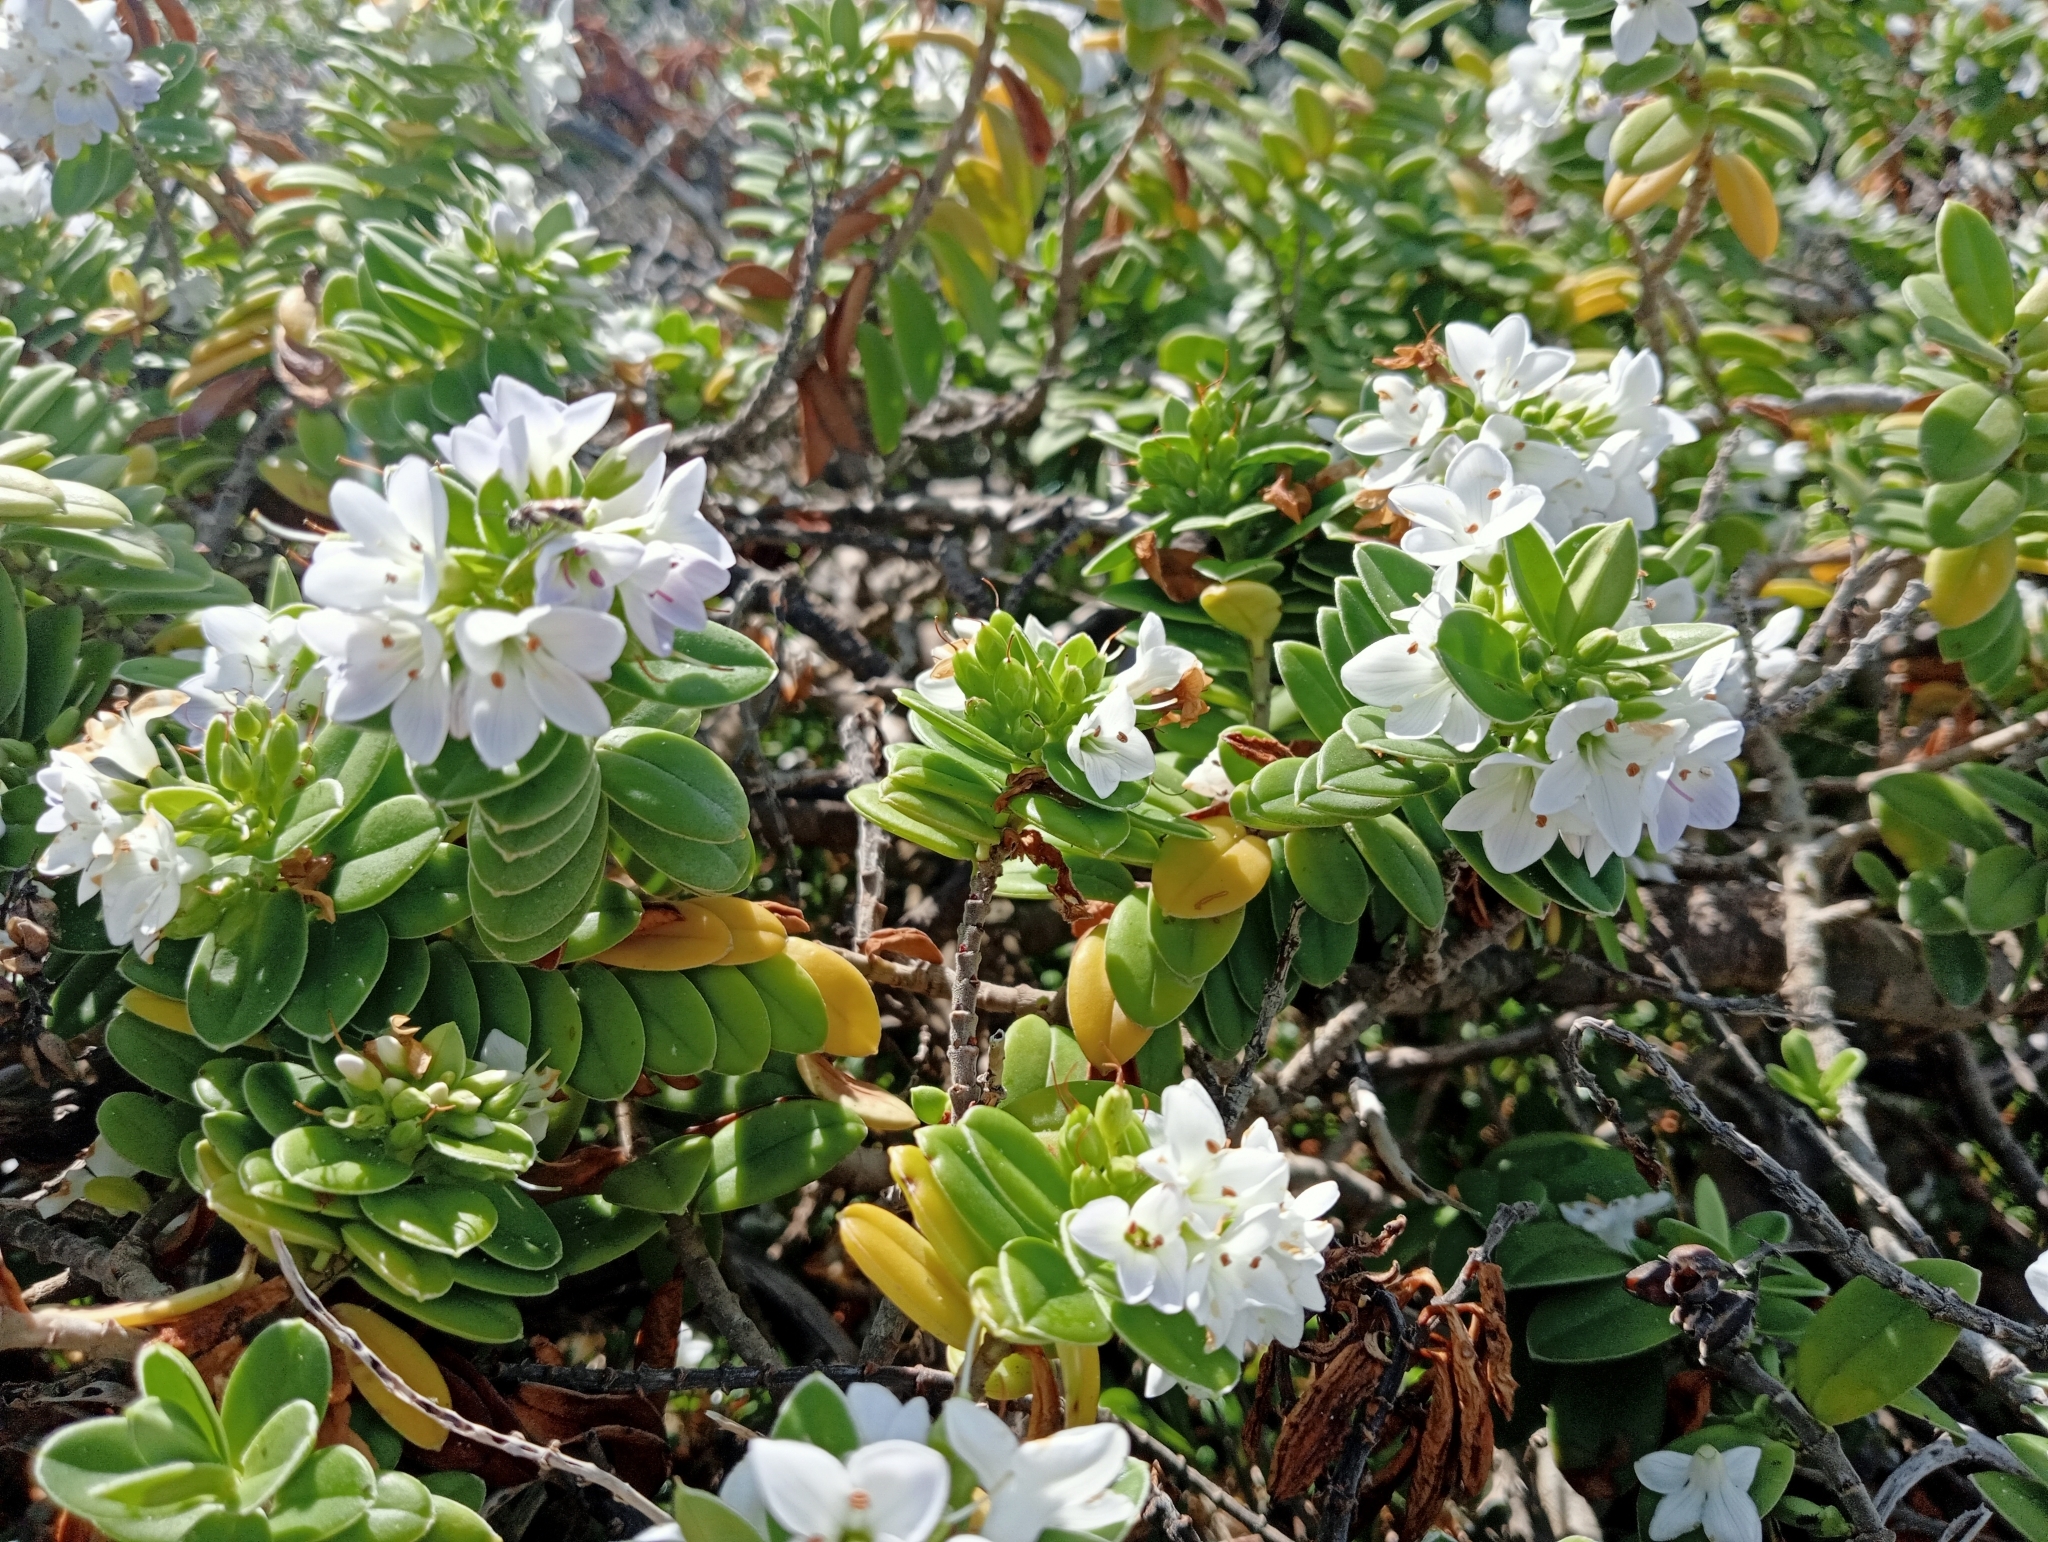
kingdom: Plantae
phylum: Tracheophyta
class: Magnoliopsida
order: Lamiales
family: Plantaginaceae
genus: Veronica
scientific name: Veronica elliptica
